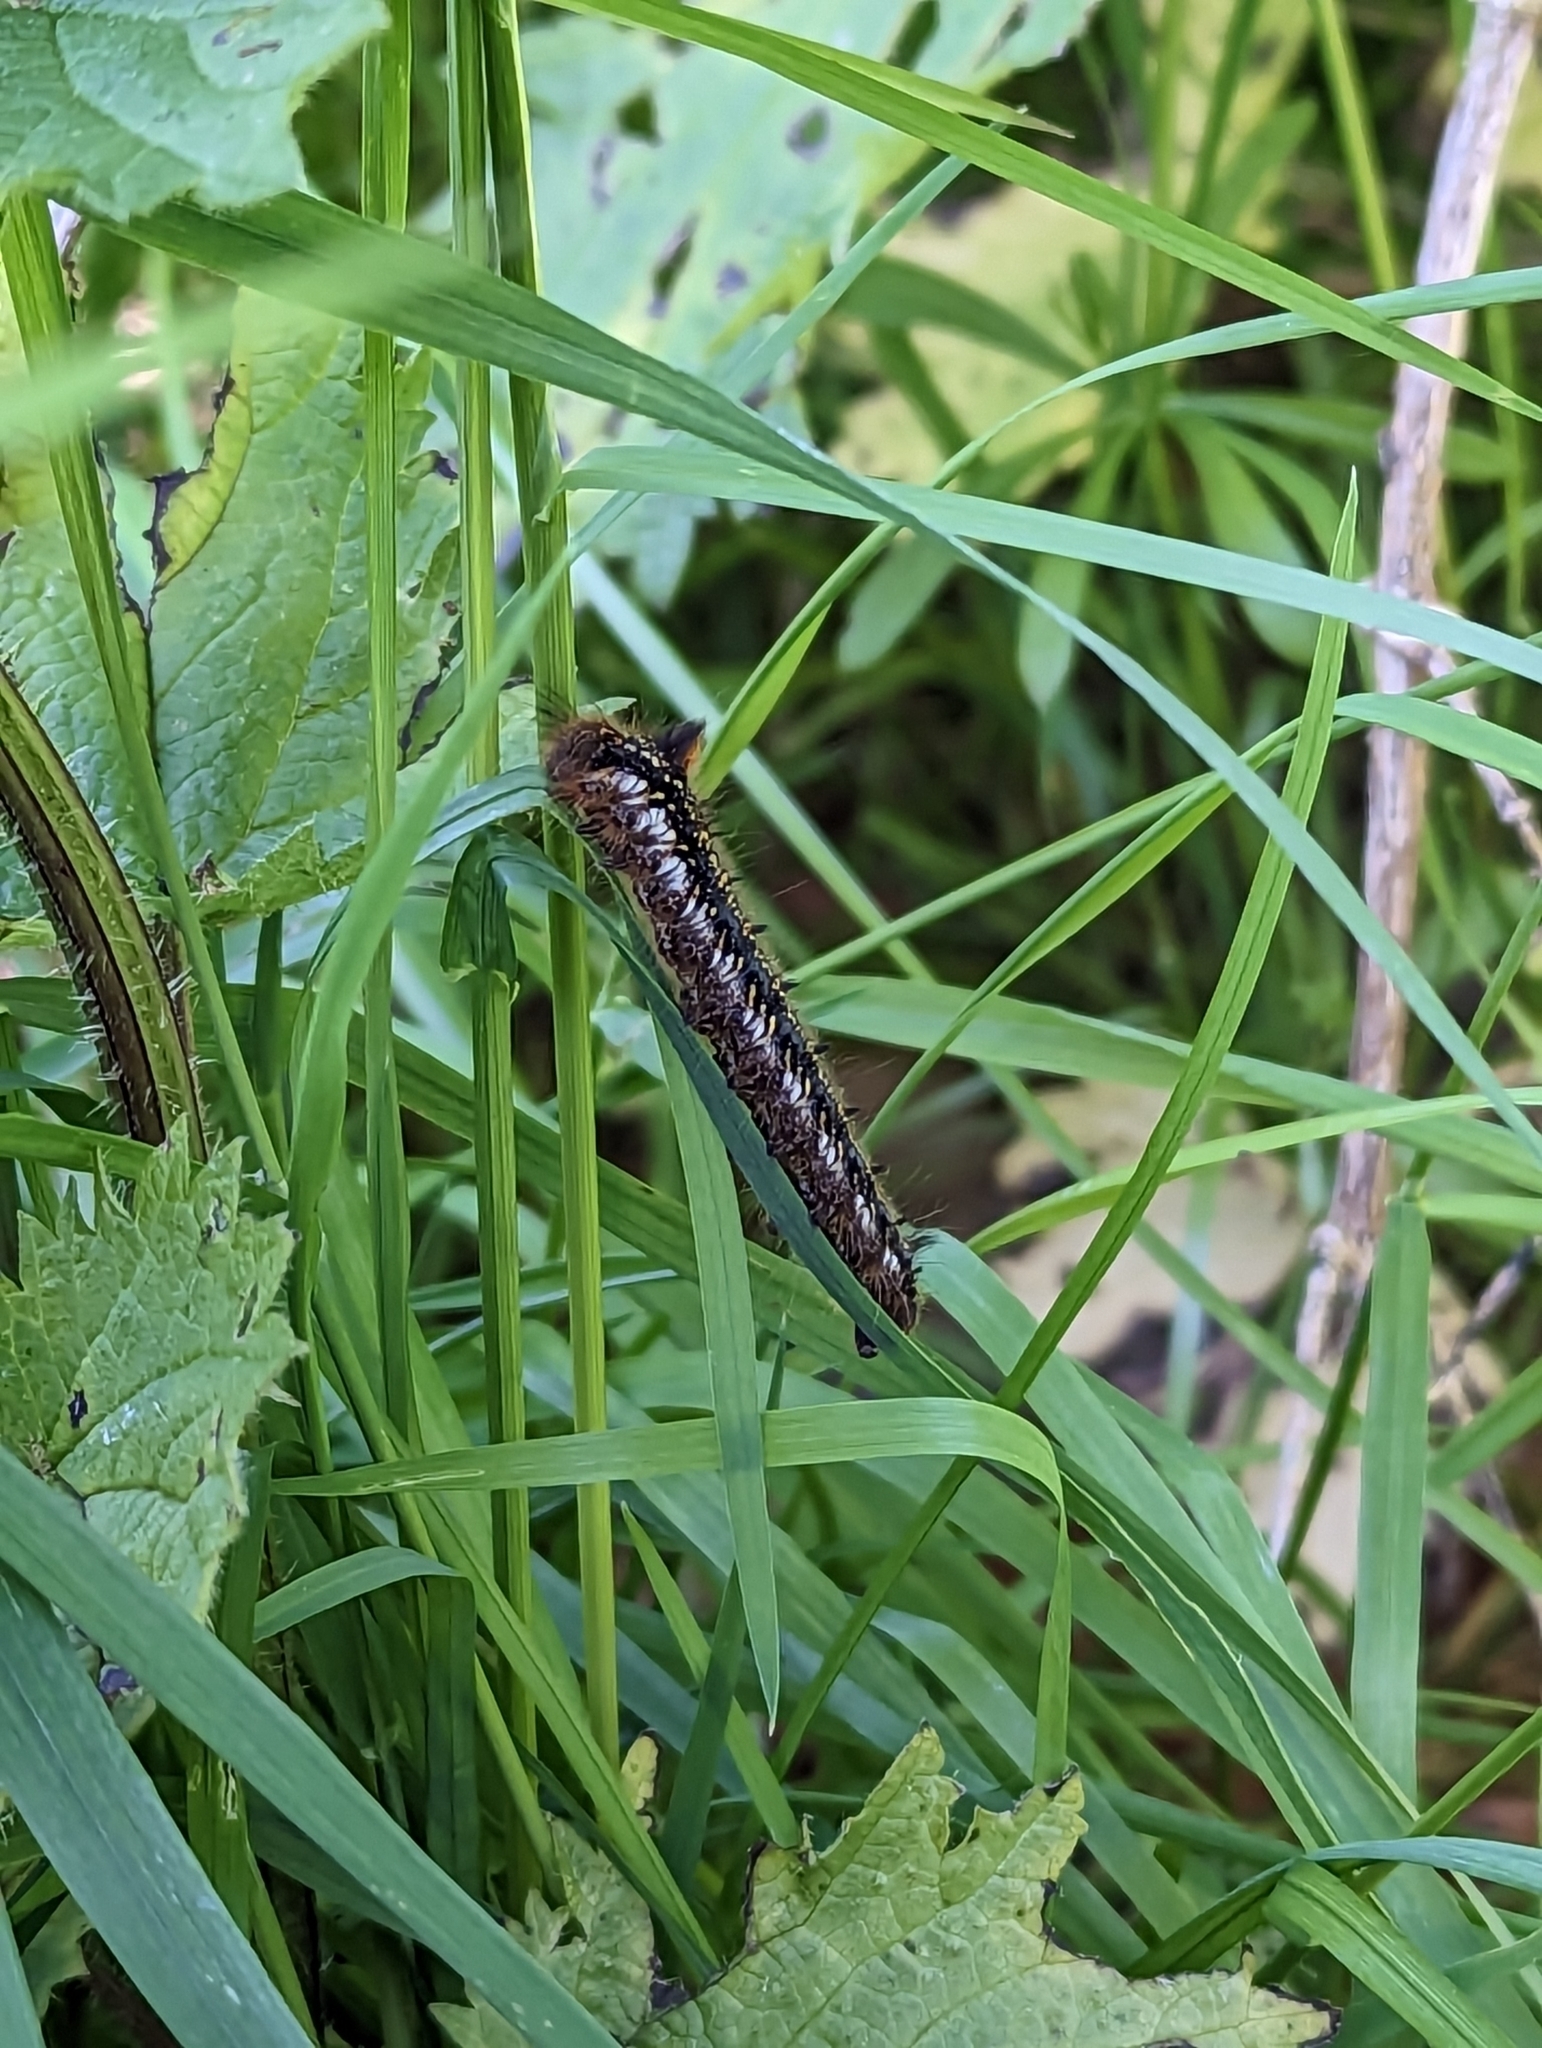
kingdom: Animalia
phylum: Arthropoda
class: Insecta
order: Lepidoptera
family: Lasiocampidae
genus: Euthrix
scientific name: Euthrix potatoria
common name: Drinker
